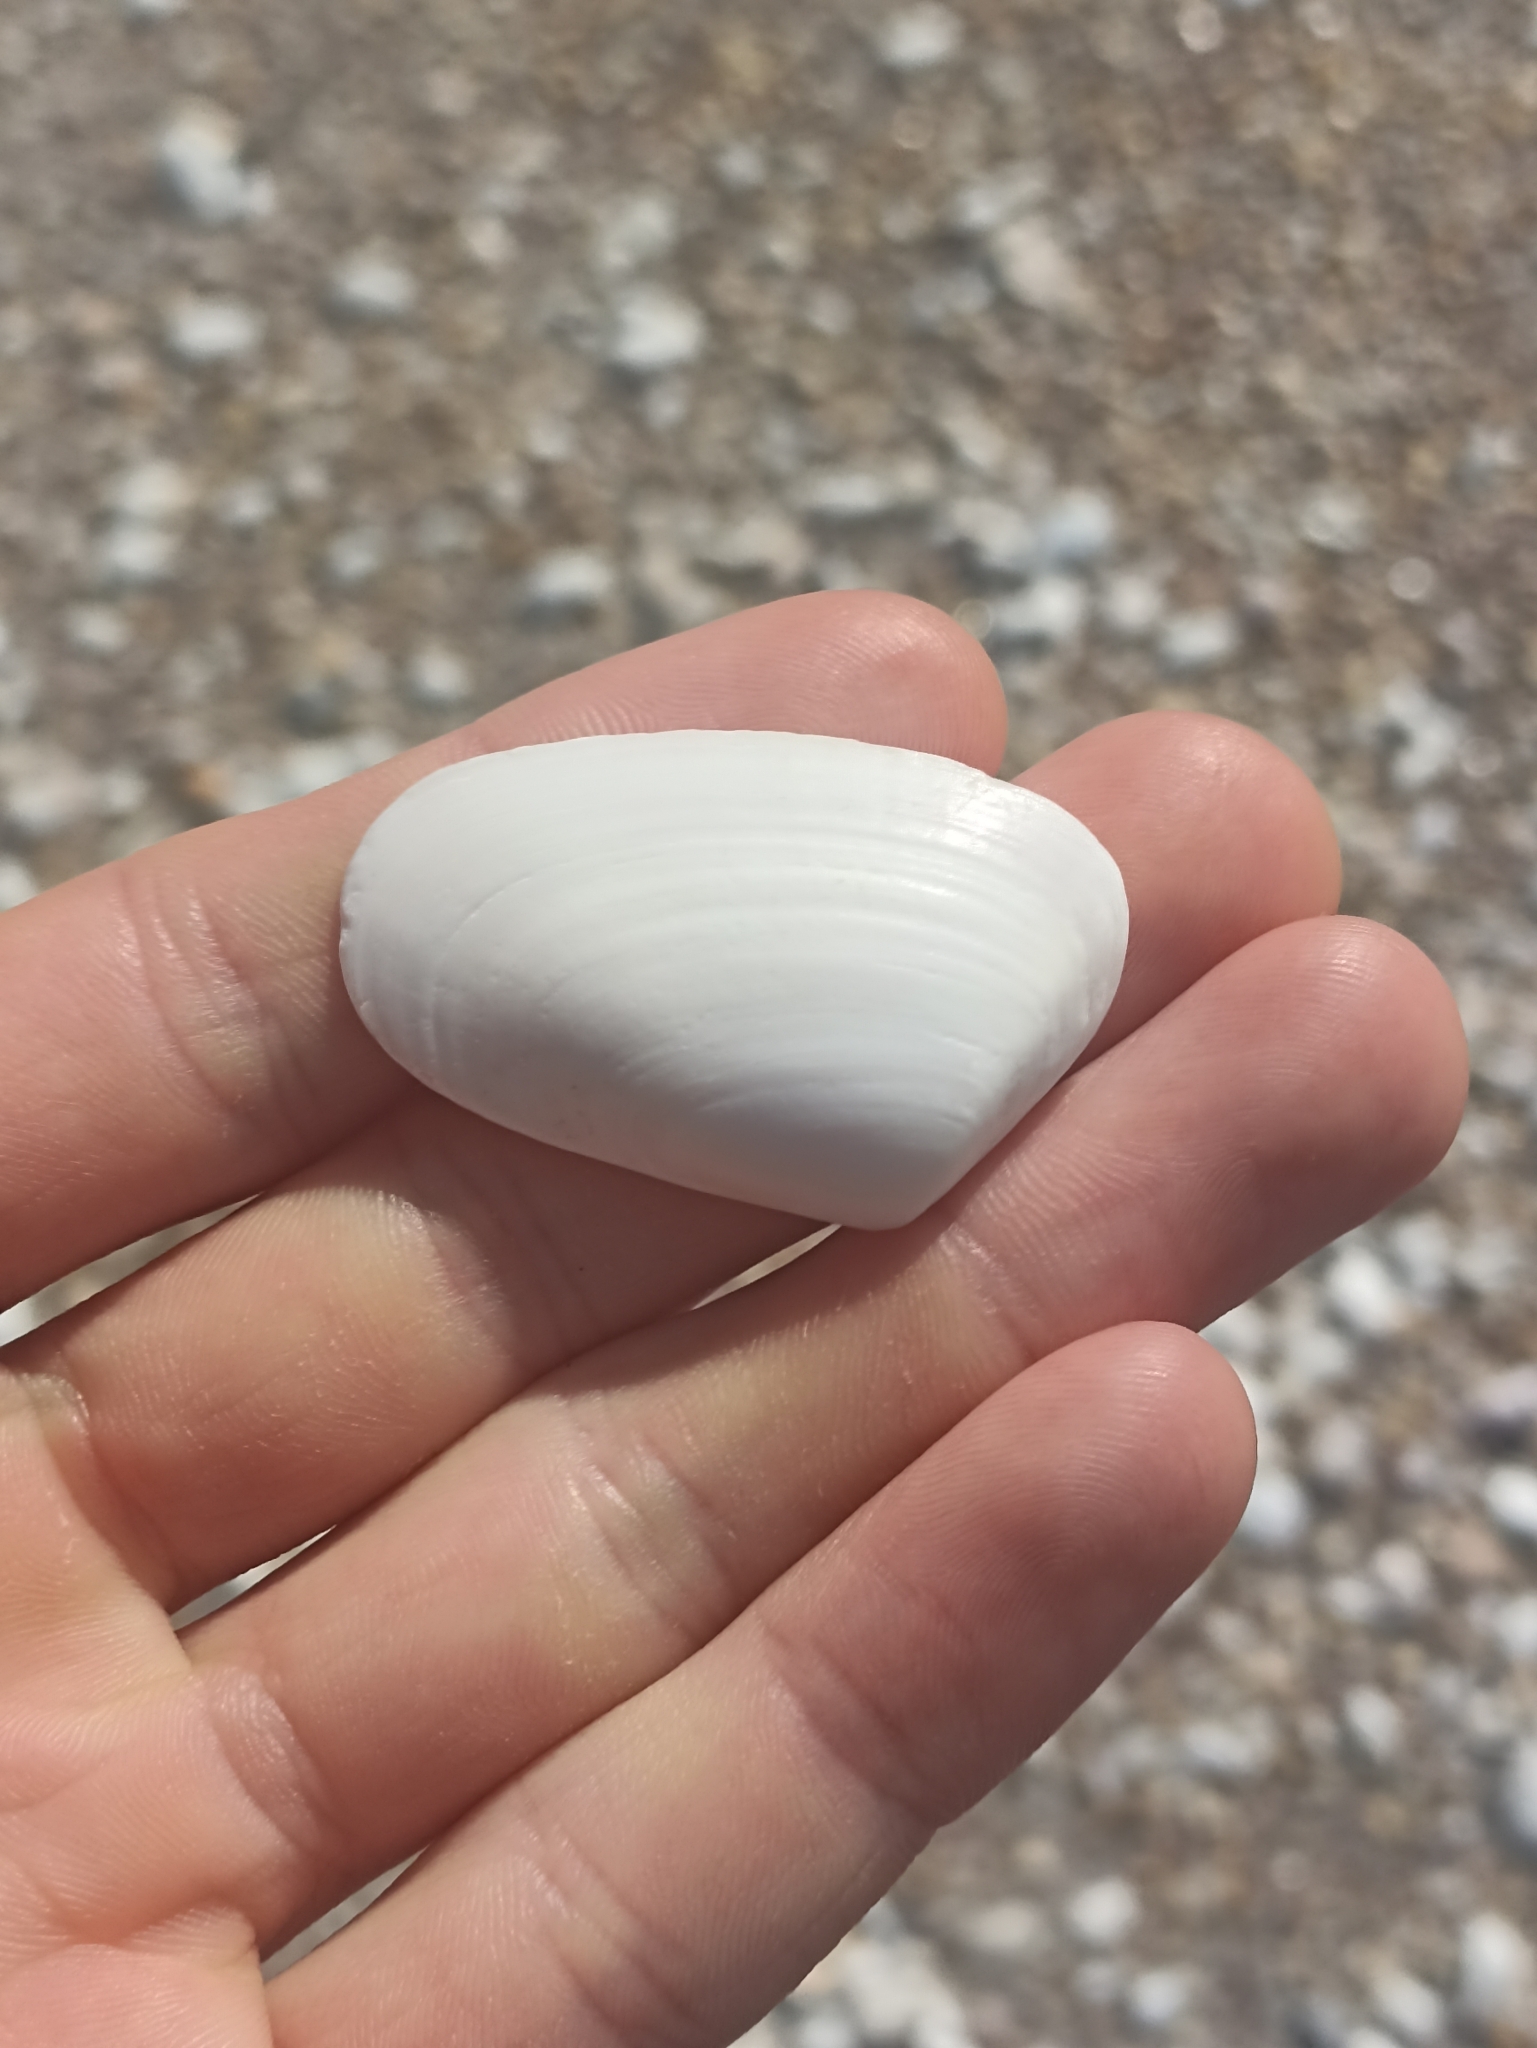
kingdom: Animalia
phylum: Mollusca
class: Bivalvia
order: Venerida
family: Mesodesmatidae
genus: Paphies
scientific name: Paphies subtriangulata
